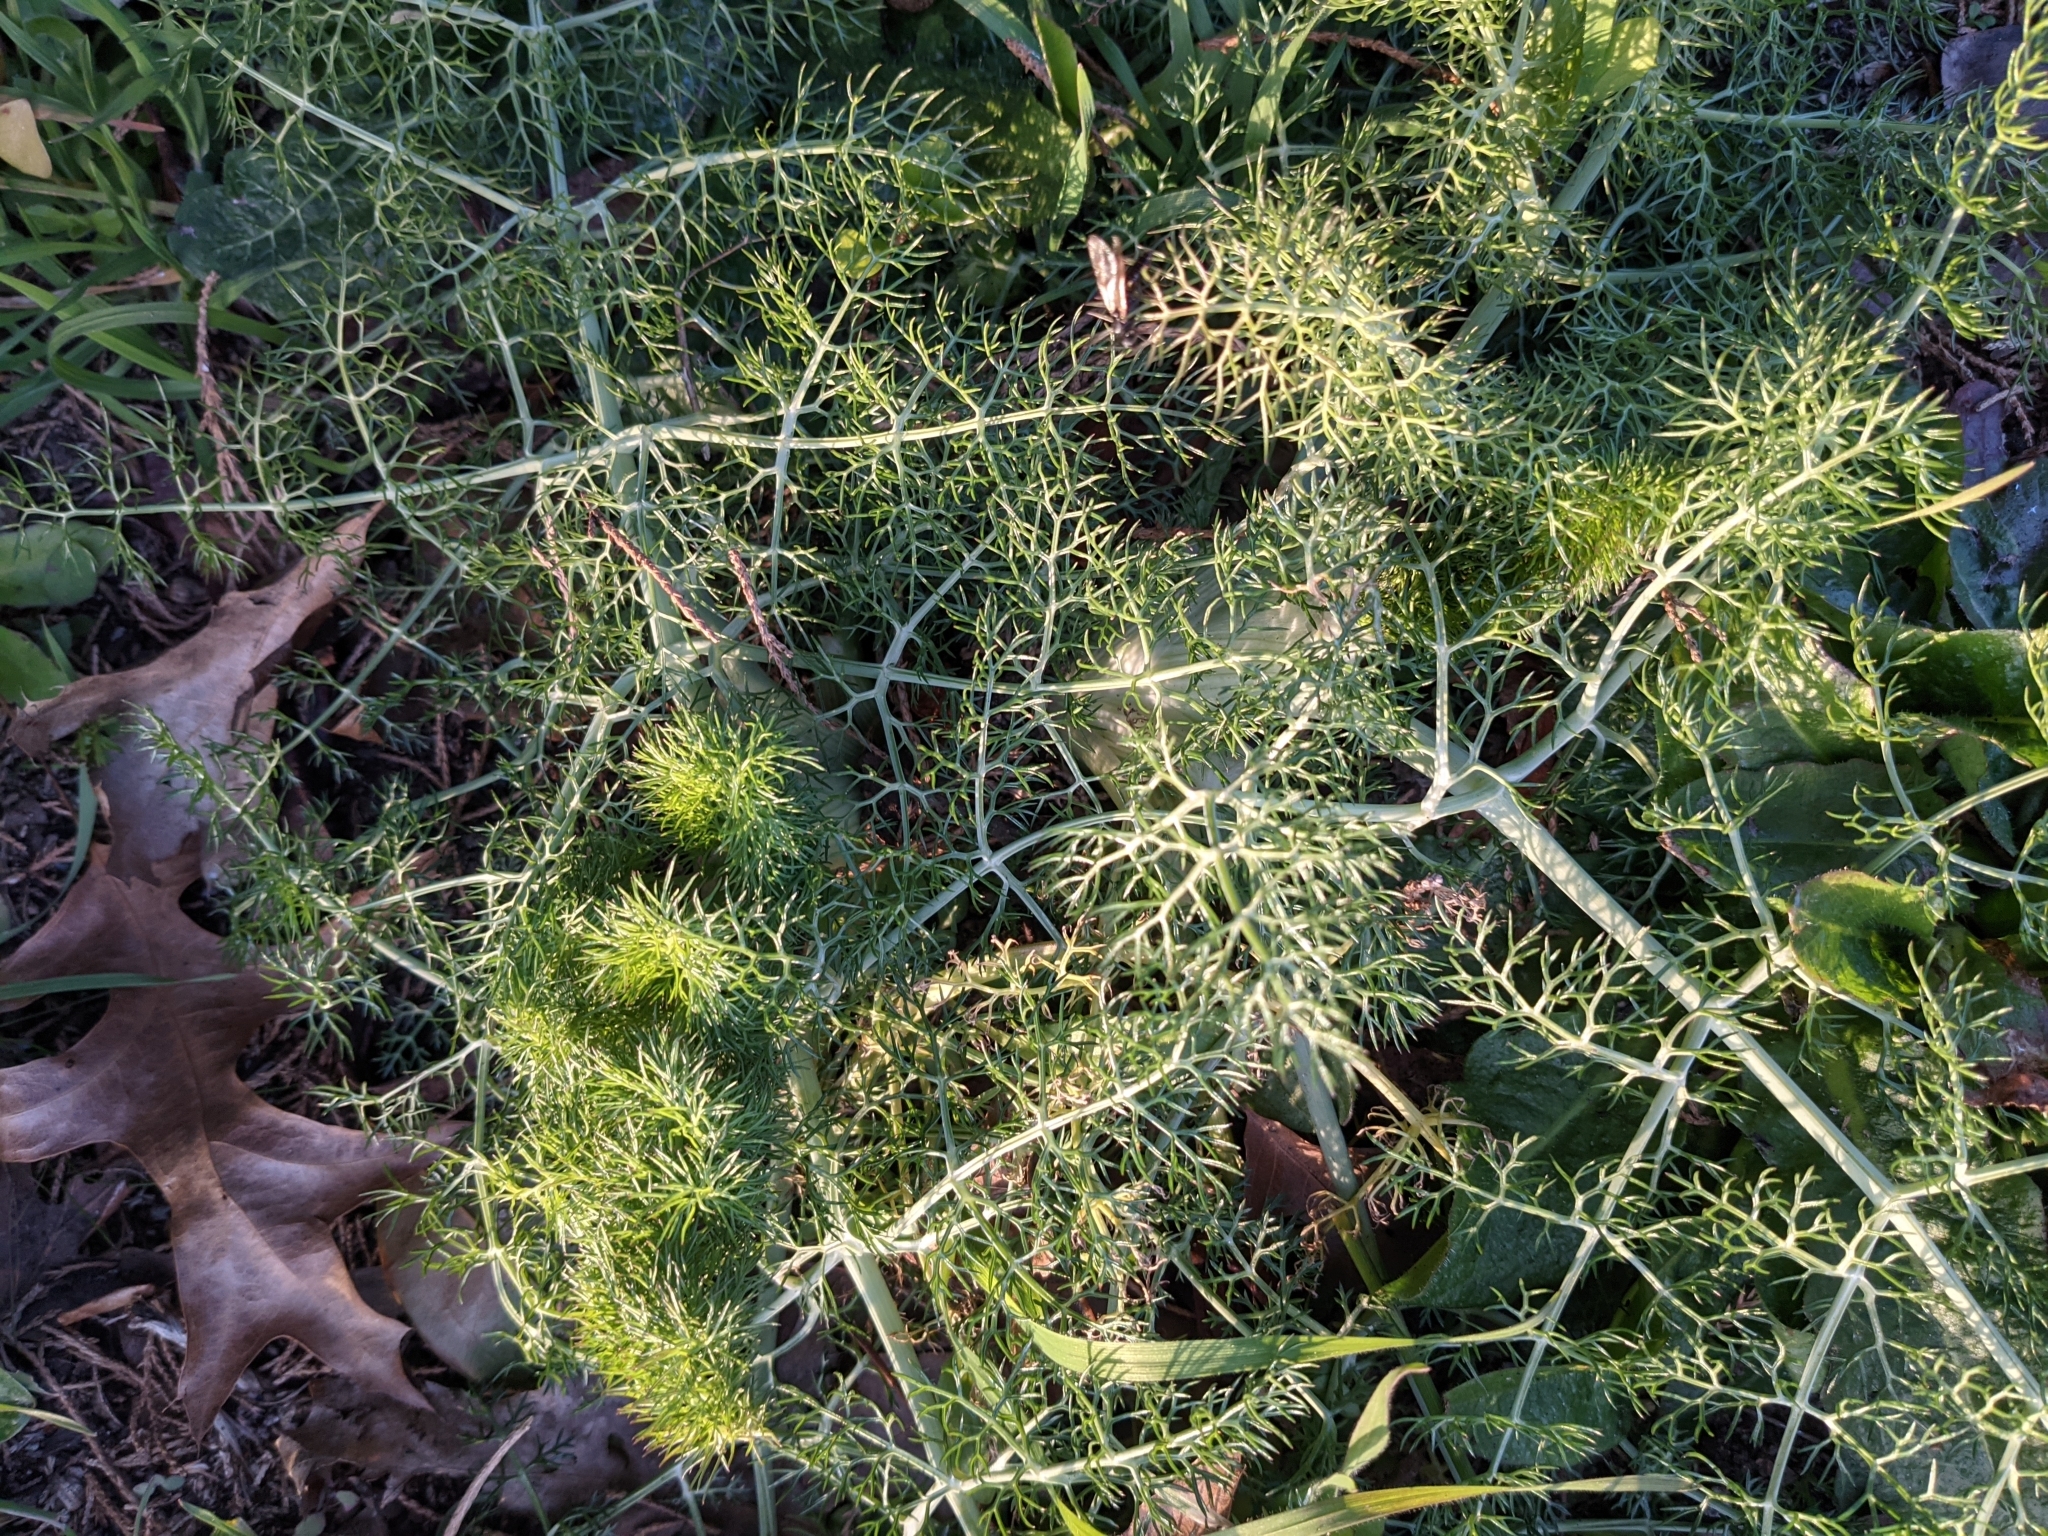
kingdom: Plantae
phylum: Tracheophyta
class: Magnoliopsida
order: Apiales
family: Apiaceae
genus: Foeniculum
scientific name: Foeniculum vulgare
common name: Fennel
